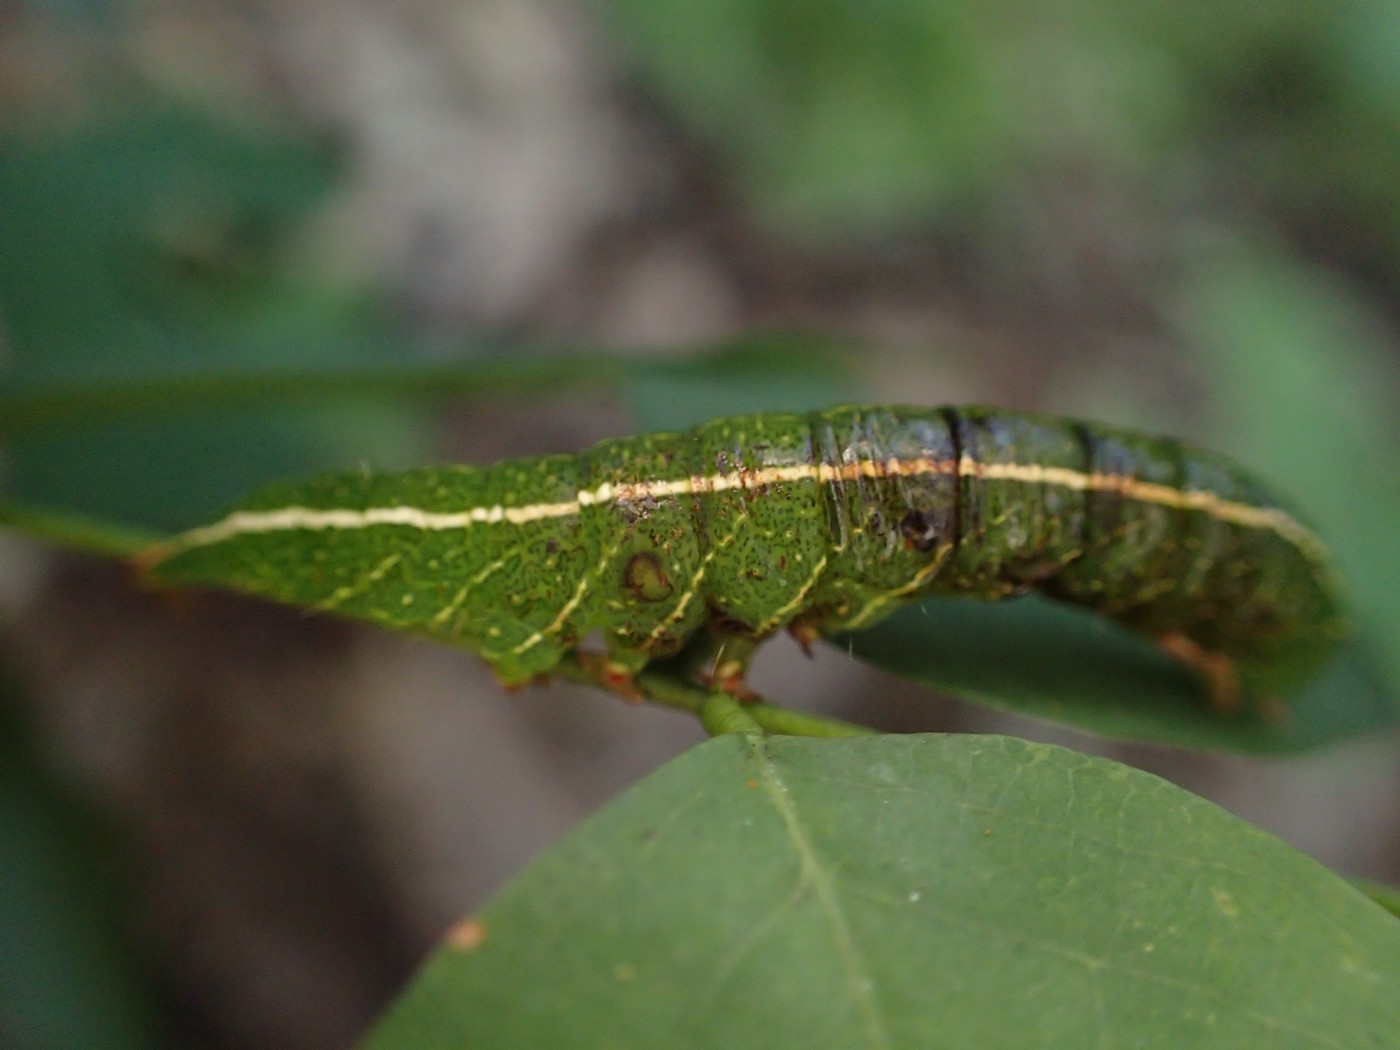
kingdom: Animalia
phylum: Arthropoda
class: Insecta
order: Lepidoptera
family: Erebidae
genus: Panopoda
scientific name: Panopoda rufimargo
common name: Red-lined panopoda moth
